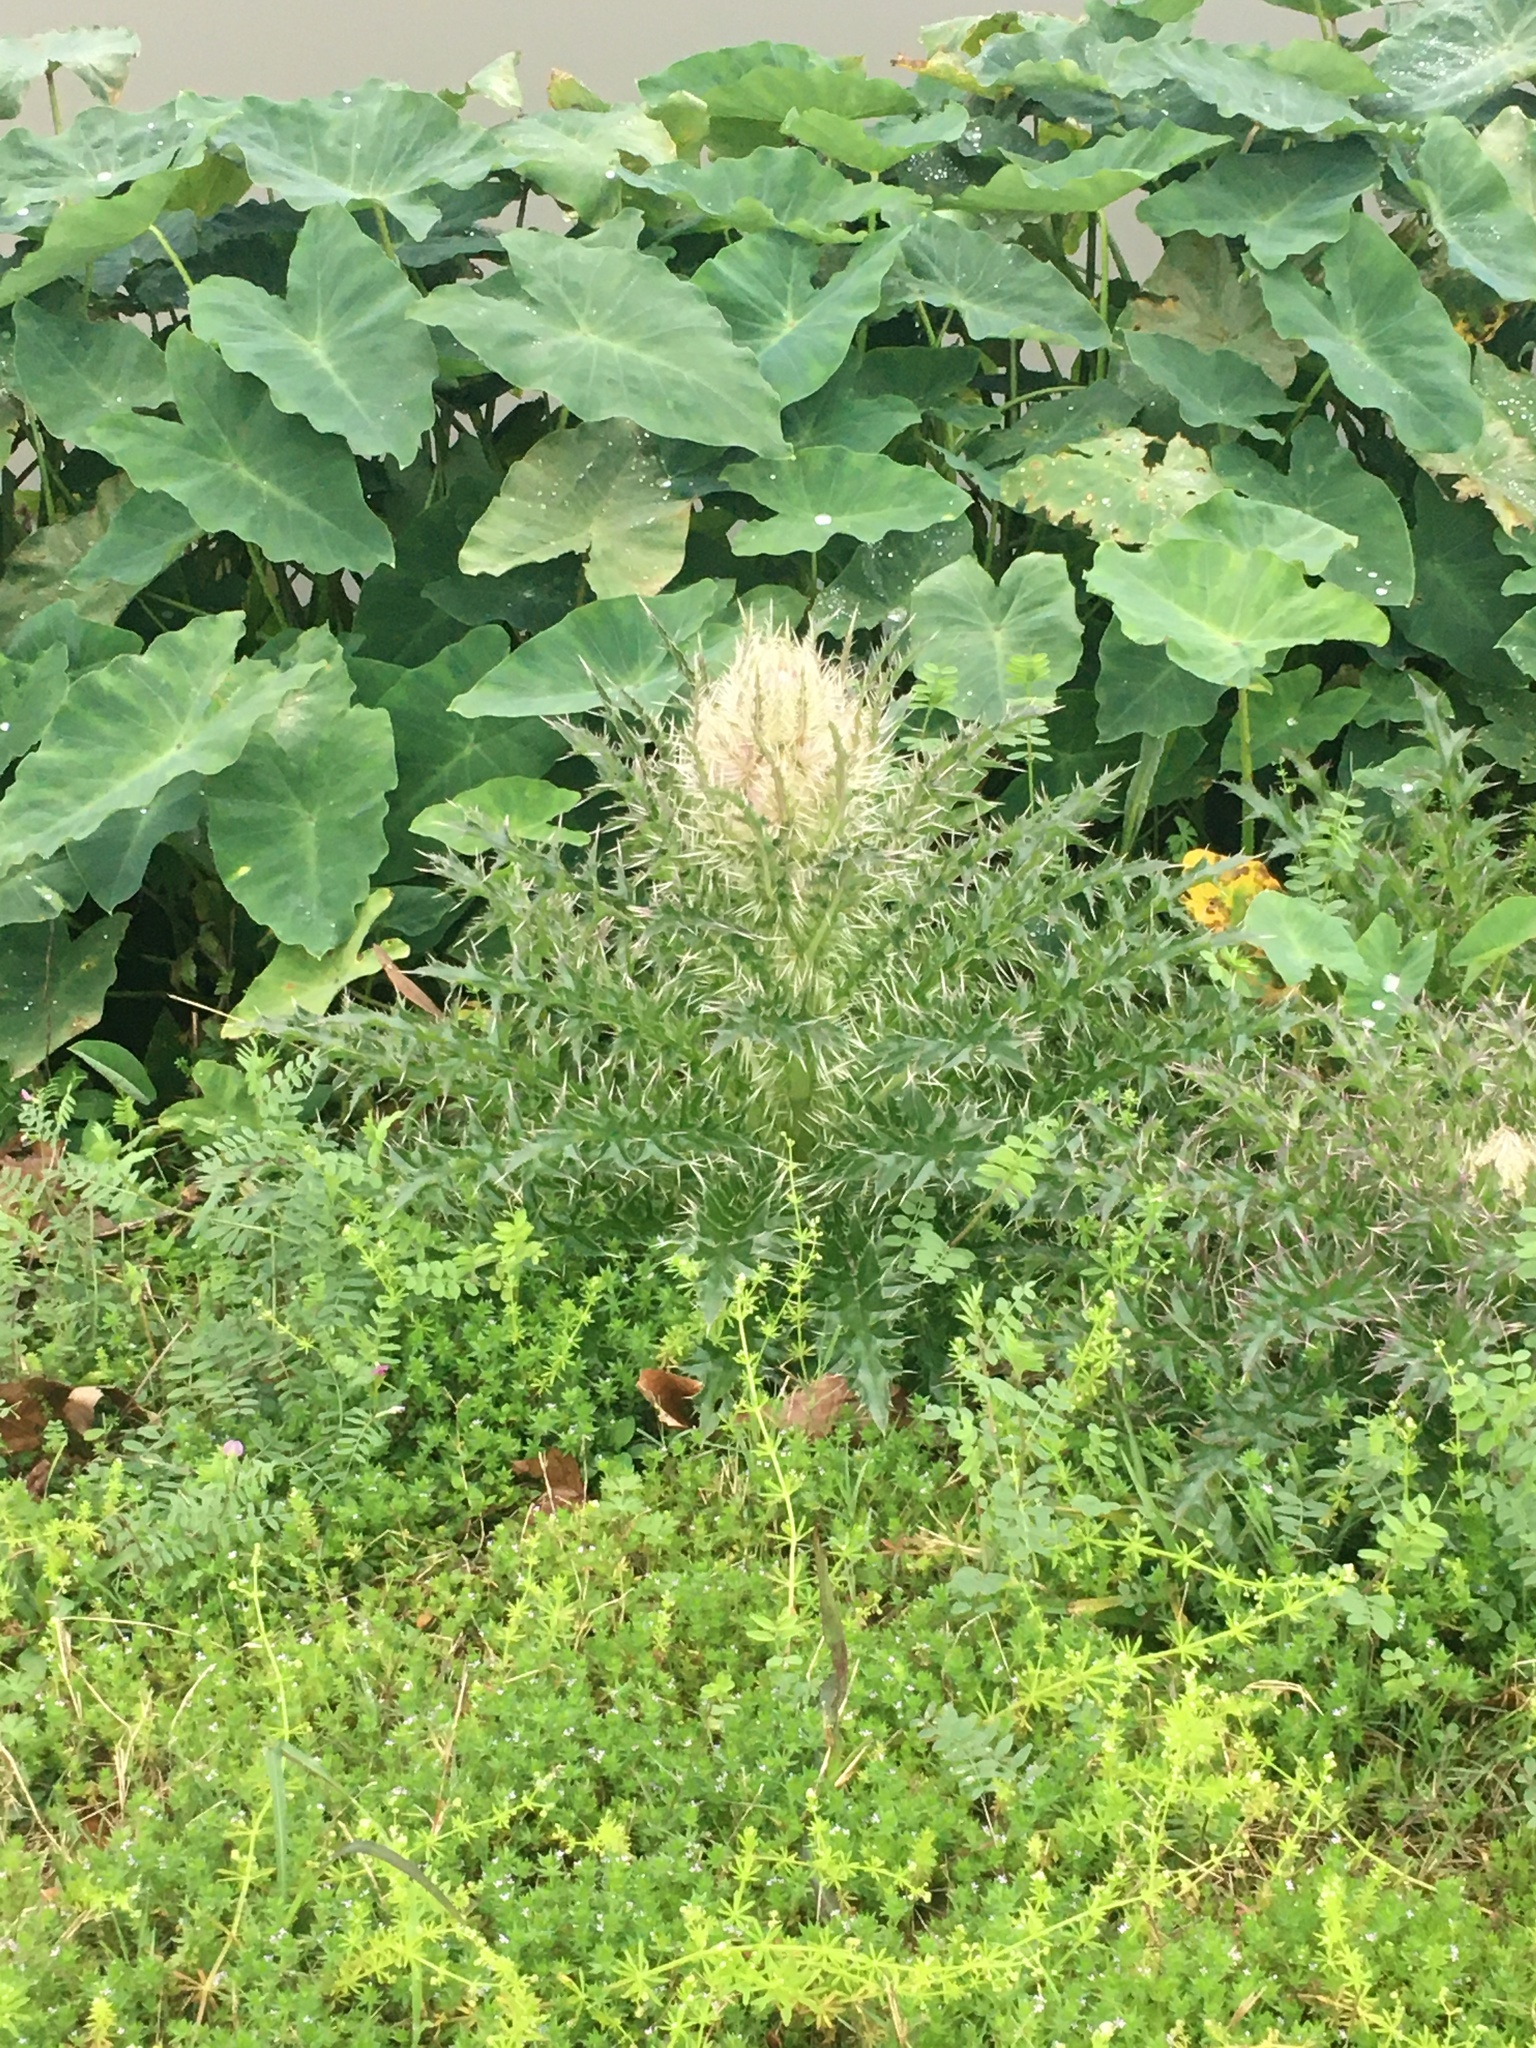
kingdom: Plantae
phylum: Tracheophyta
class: Magnoliopsida
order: Asterales
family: Asteraceae
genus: Cirsium
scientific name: Cirsium horridulum
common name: Bristly thistle
